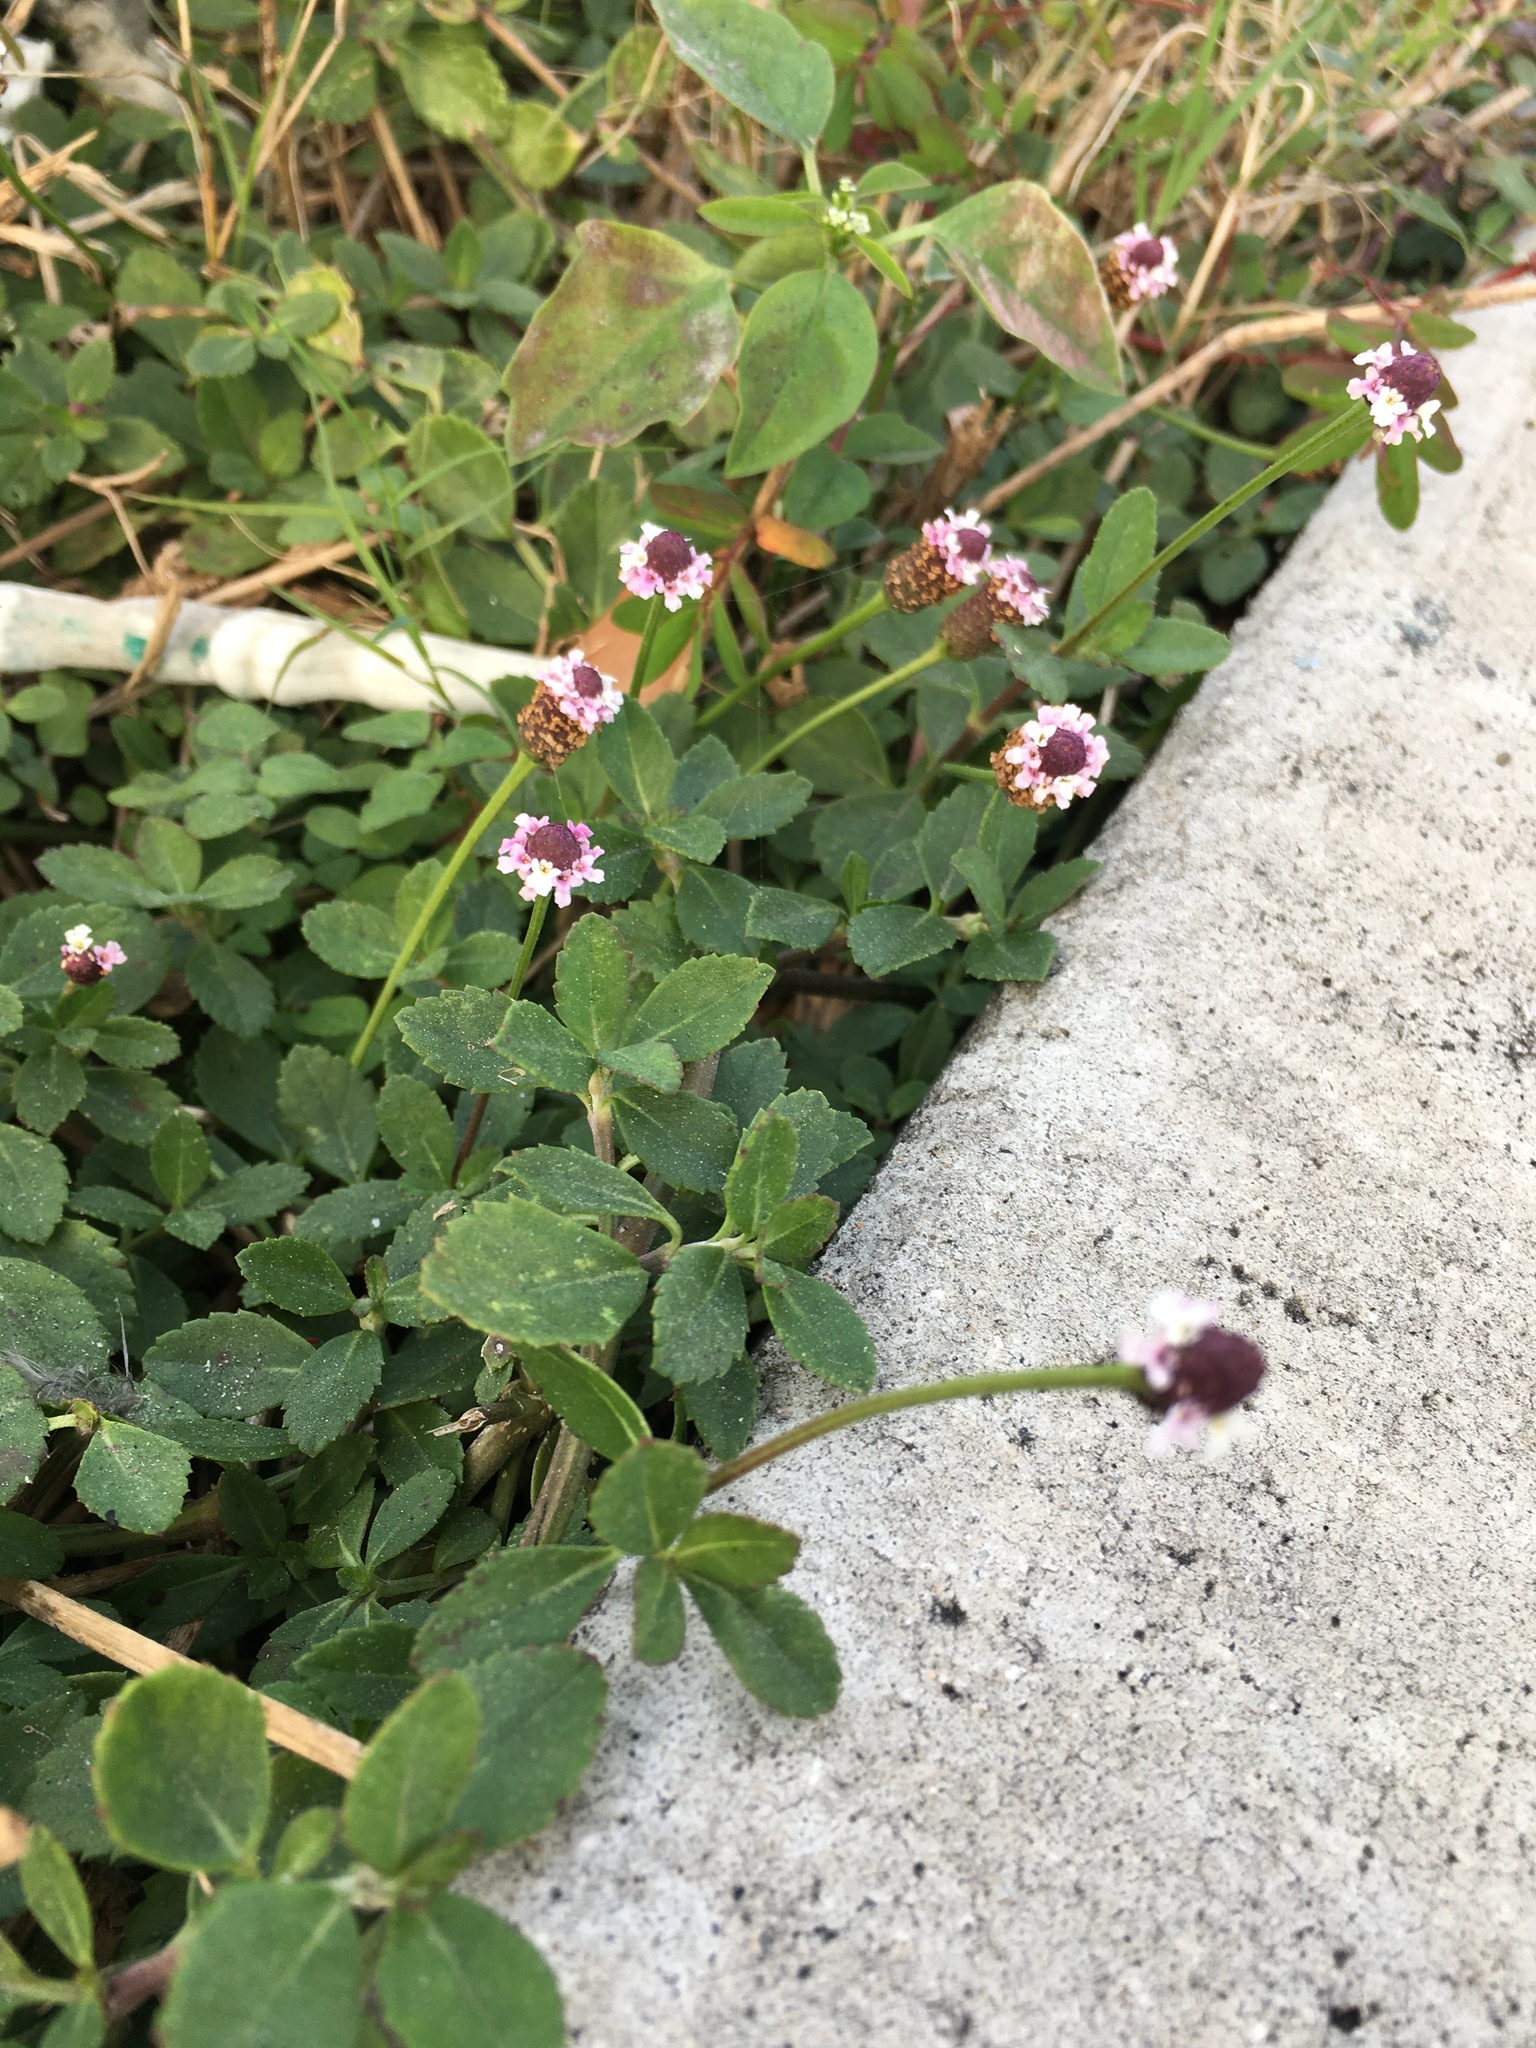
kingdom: Plantae
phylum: Tracheophyta
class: Magnoliopsida
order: Lamiales
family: Verbenaceae
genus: Phyla
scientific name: Phyla nodiflora
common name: Frogfruit
